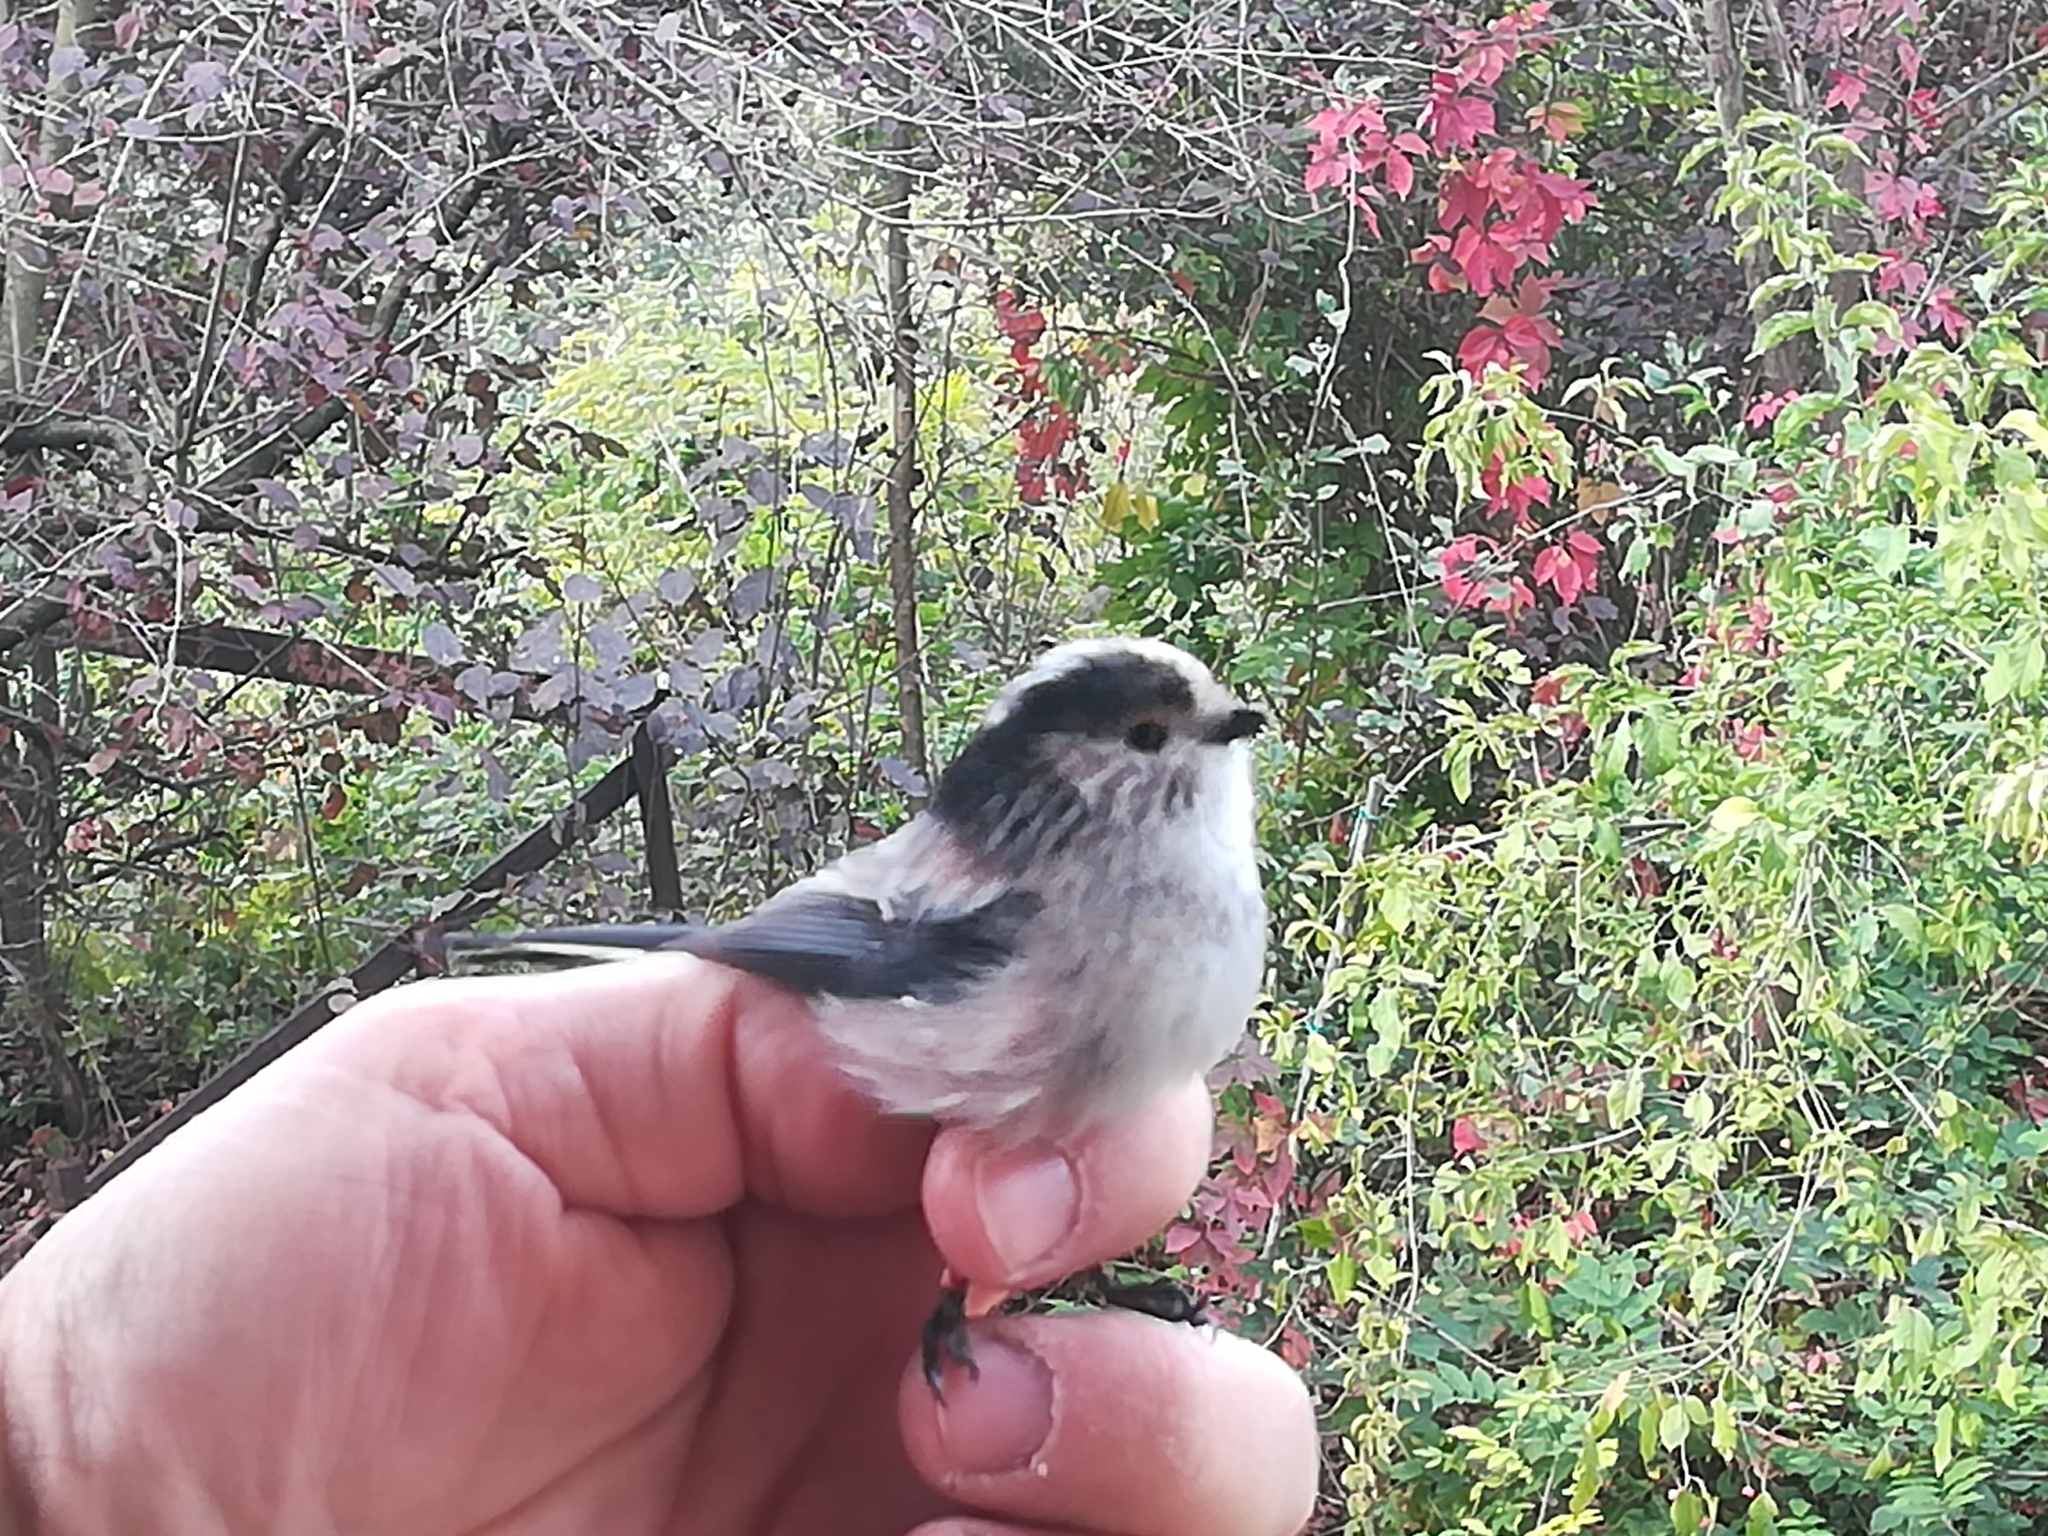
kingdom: Animalia
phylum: Chordata
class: Aves
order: Passeriformes
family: Aegithalidae
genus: Aegithalos
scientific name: Aegithalos caudatus
